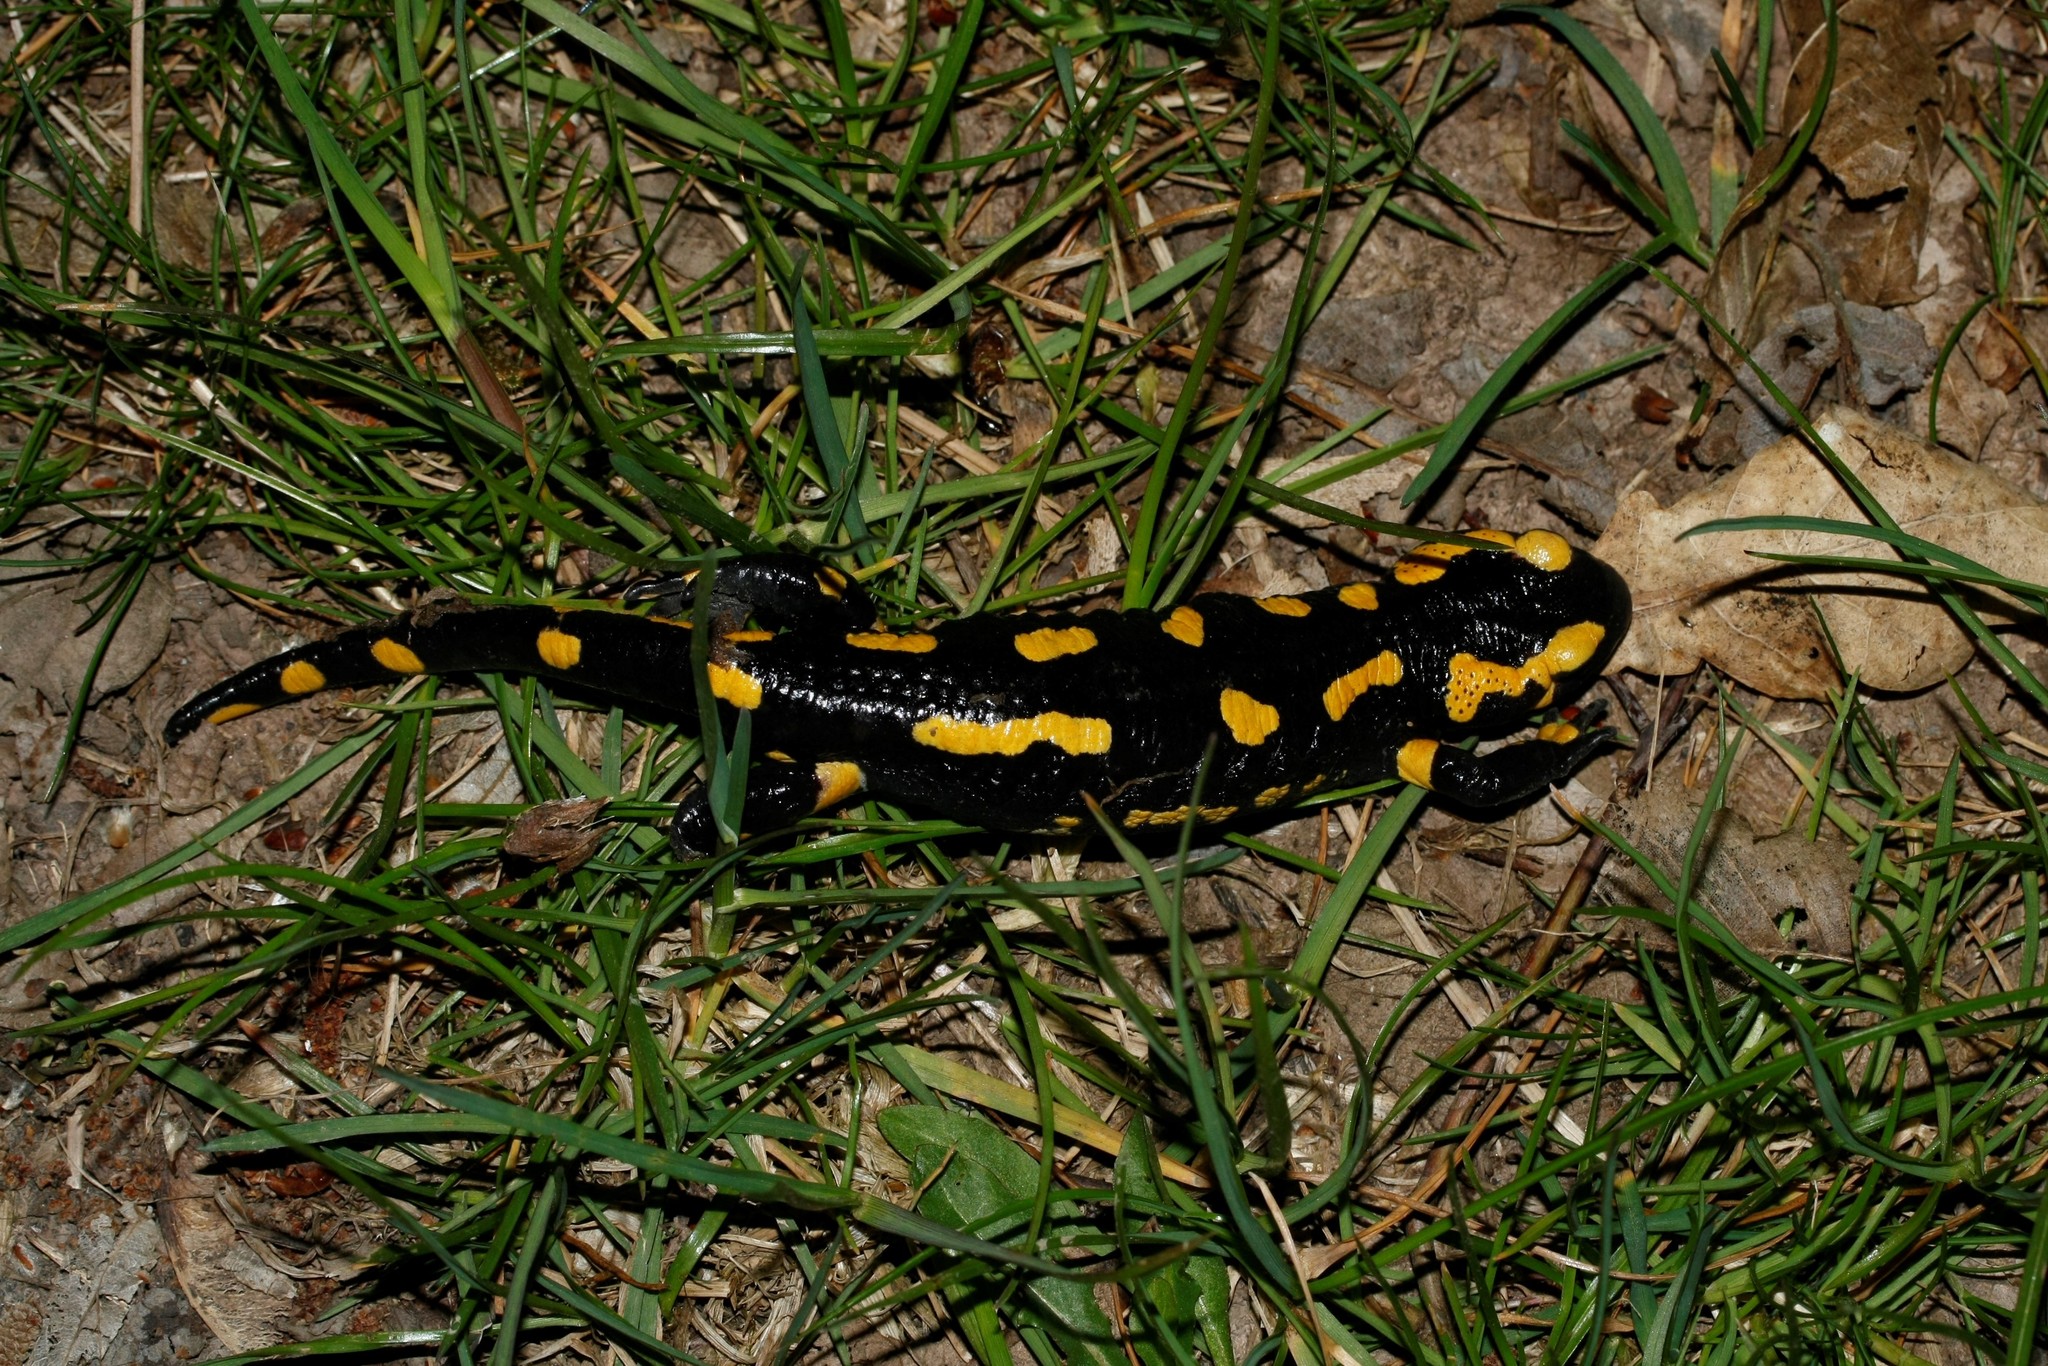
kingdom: Animalia
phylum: Chordata
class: Amphibia
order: Caudata
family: Salamandridae
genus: Salamandra
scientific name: Salamandra salamandra
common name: Fire salamander
